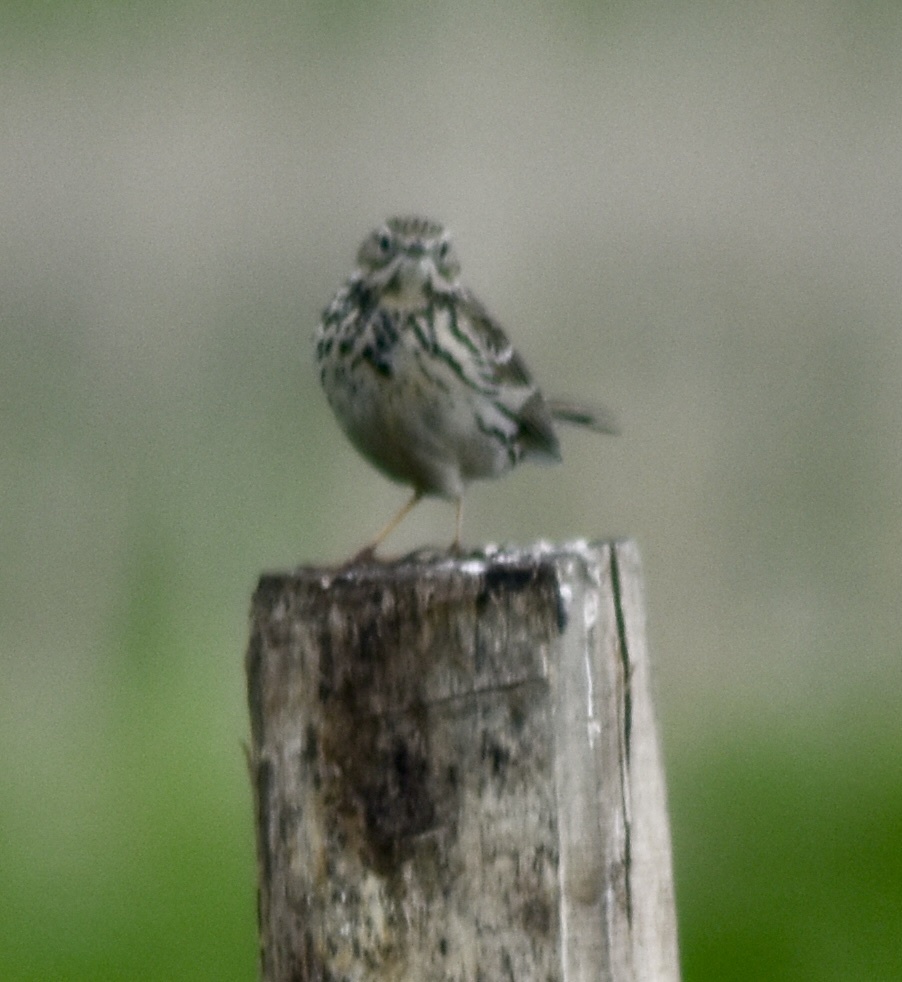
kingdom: Animalia
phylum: Chordata
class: Aves
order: Passeriformes
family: Motacillidae
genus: Anthus
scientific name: Anthus pratensis
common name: Meadow pipit
